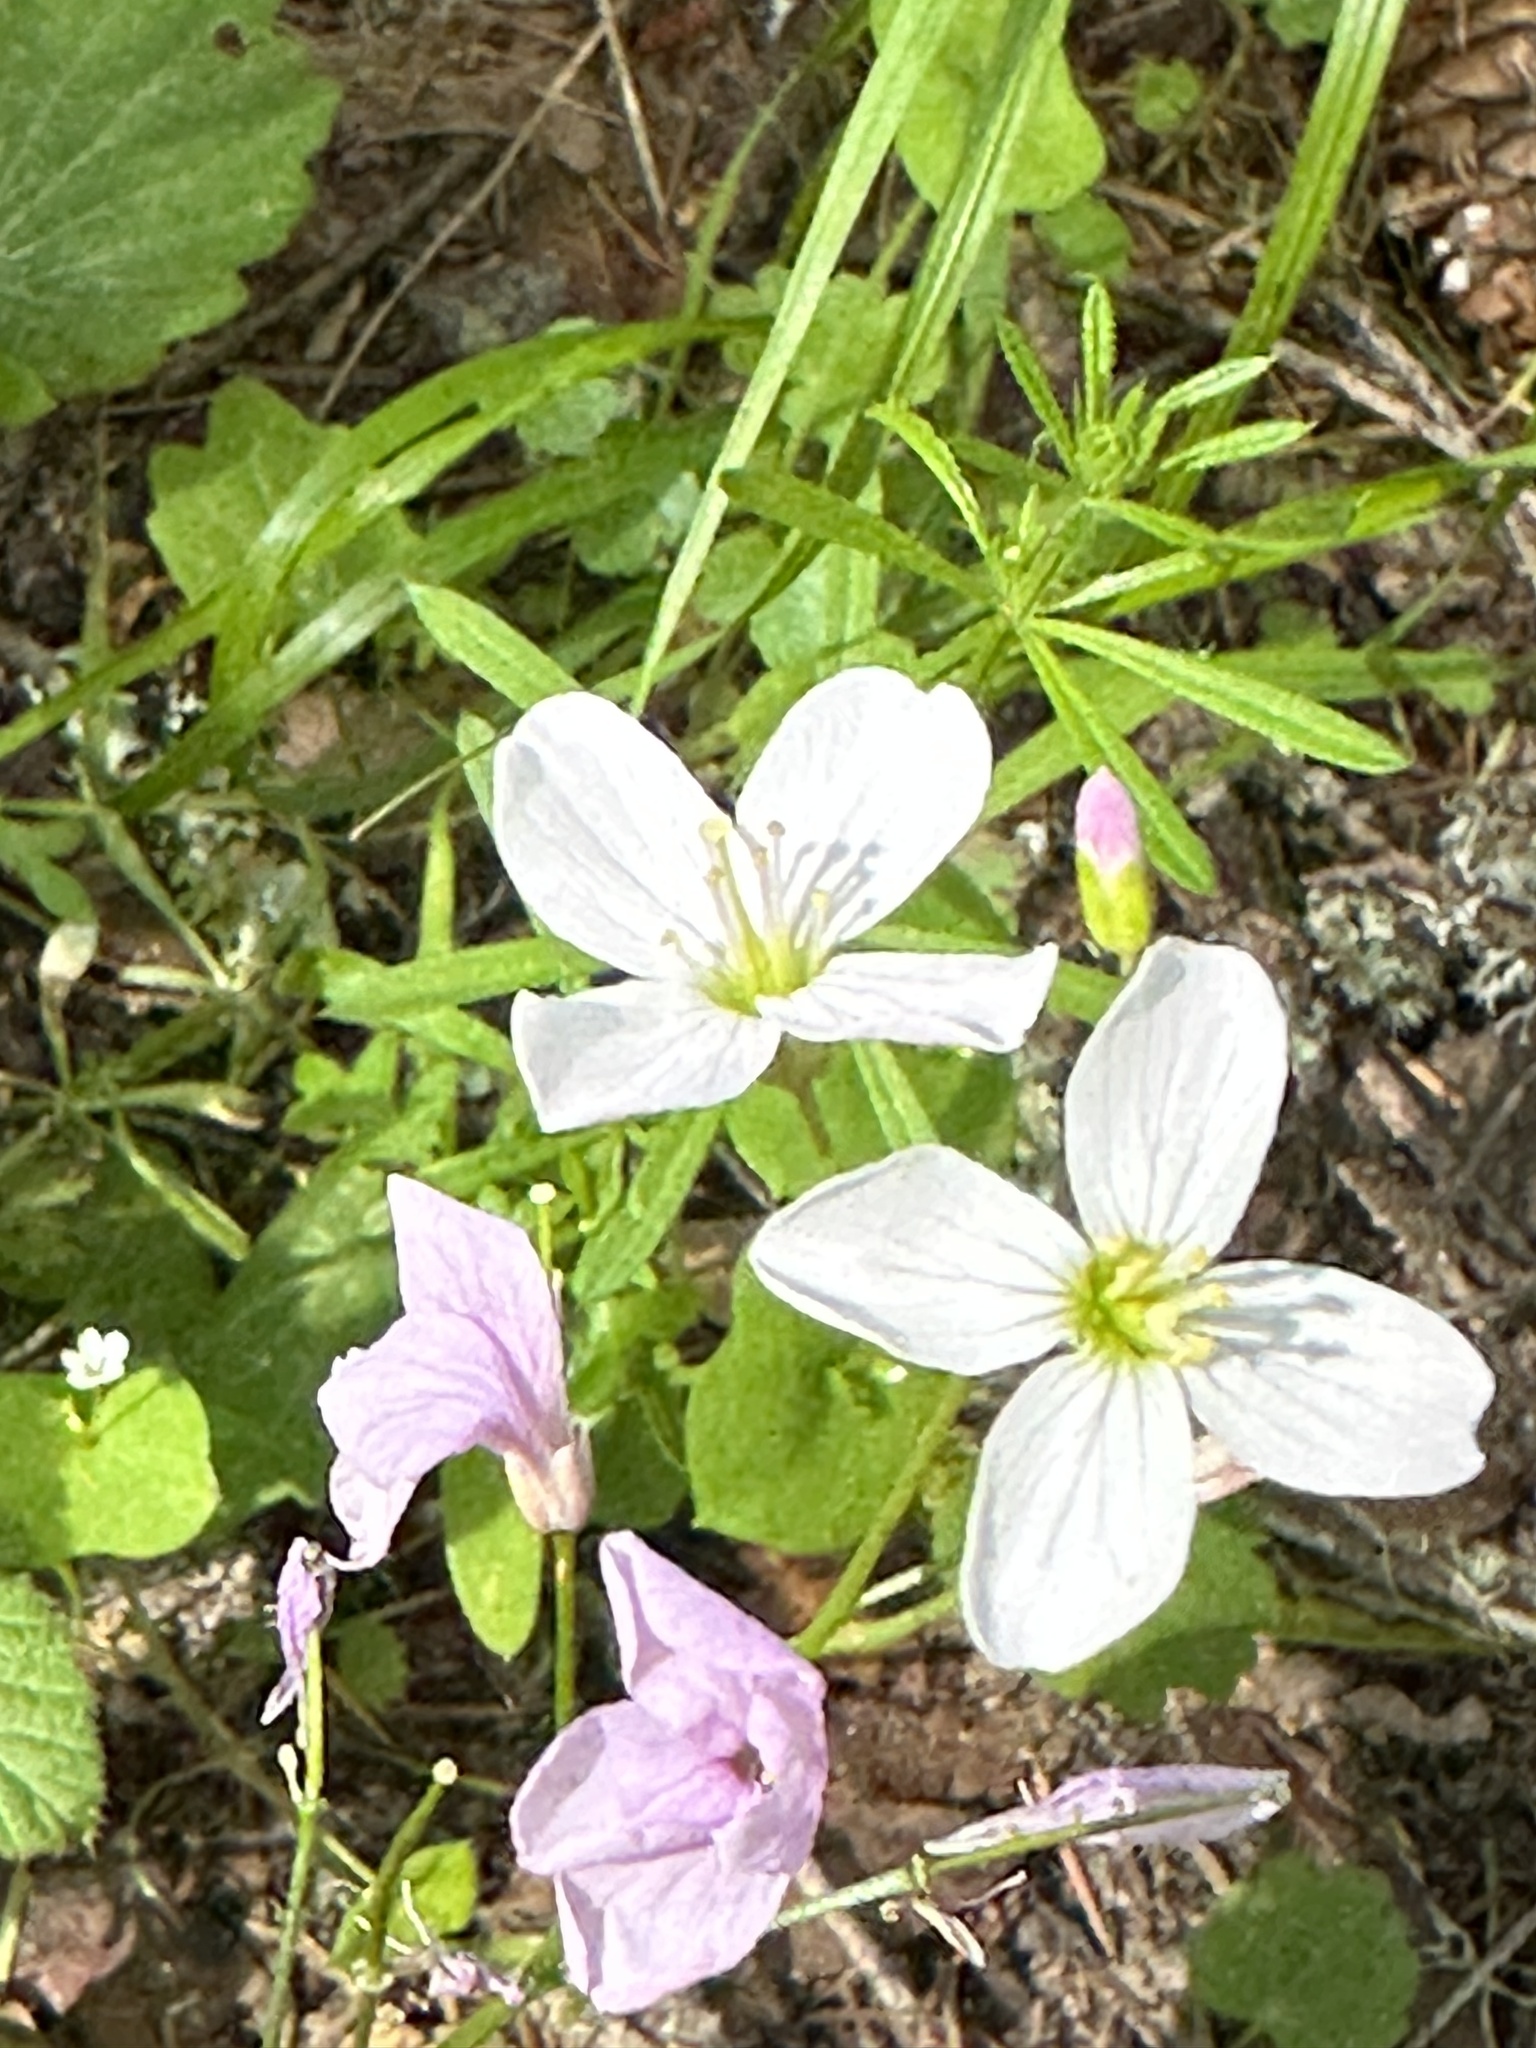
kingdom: Plantae
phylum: Tracheophyta
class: Magnoliopsida
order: Brassicales
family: Brassicaceae
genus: Cardamine
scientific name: Cardamine californica
